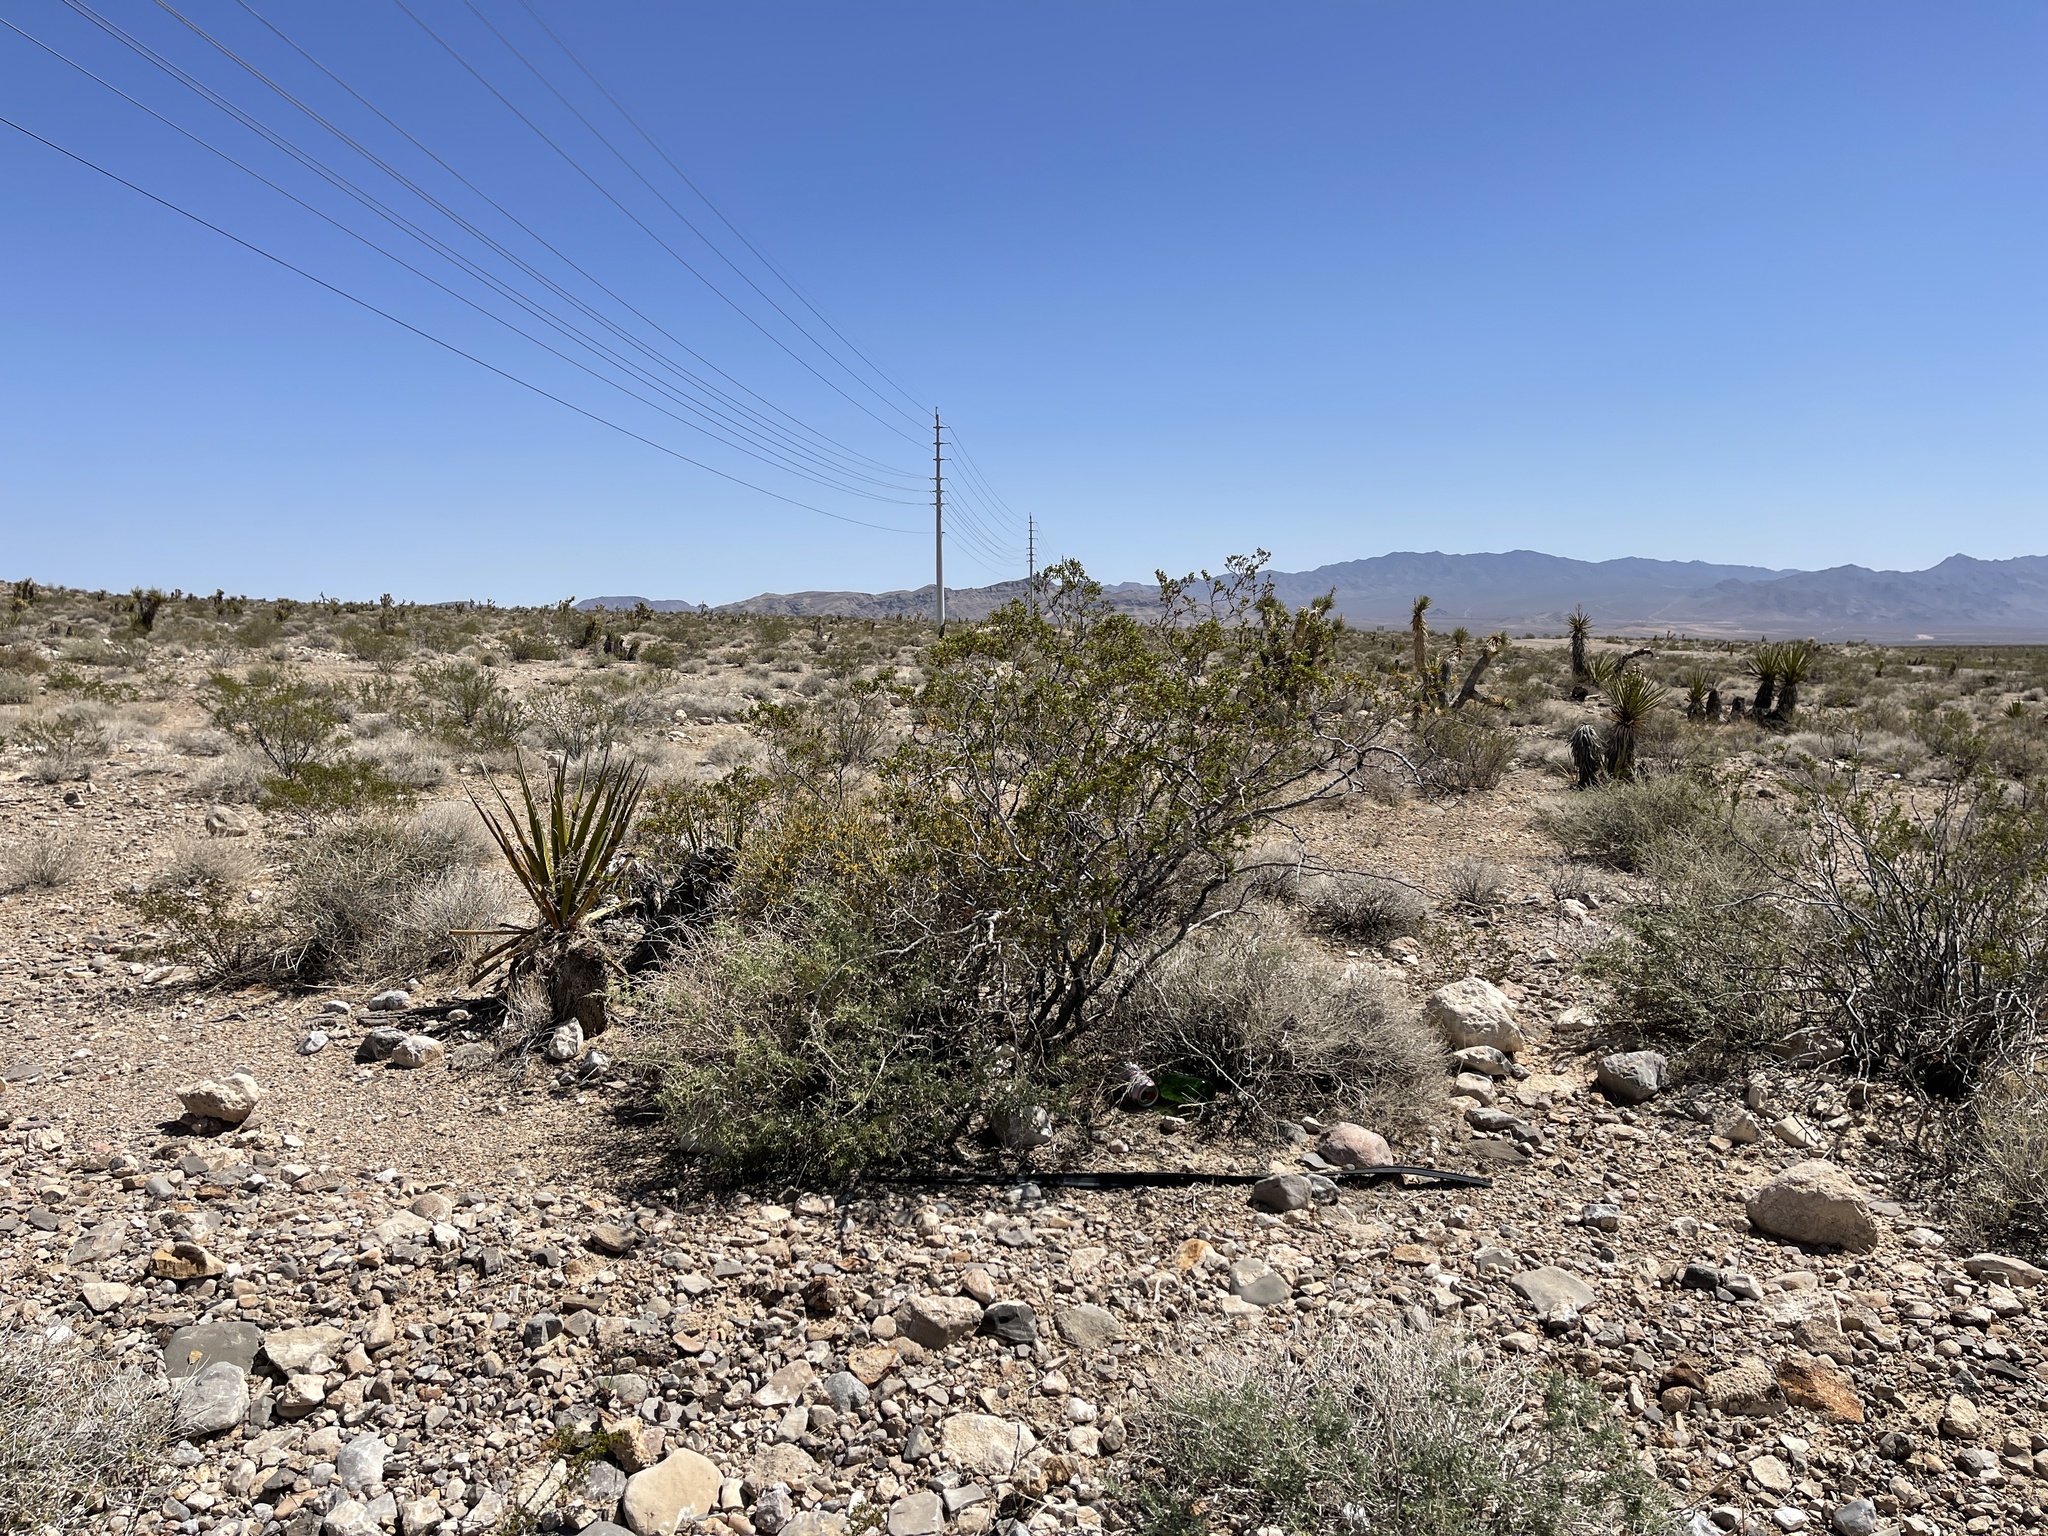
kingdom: Plantae
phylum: Tracheophyta
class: Magnoliopsida
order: Zygophyllales
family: Zygophyllaceae
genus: Larrea
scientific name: Larrea tridentata
